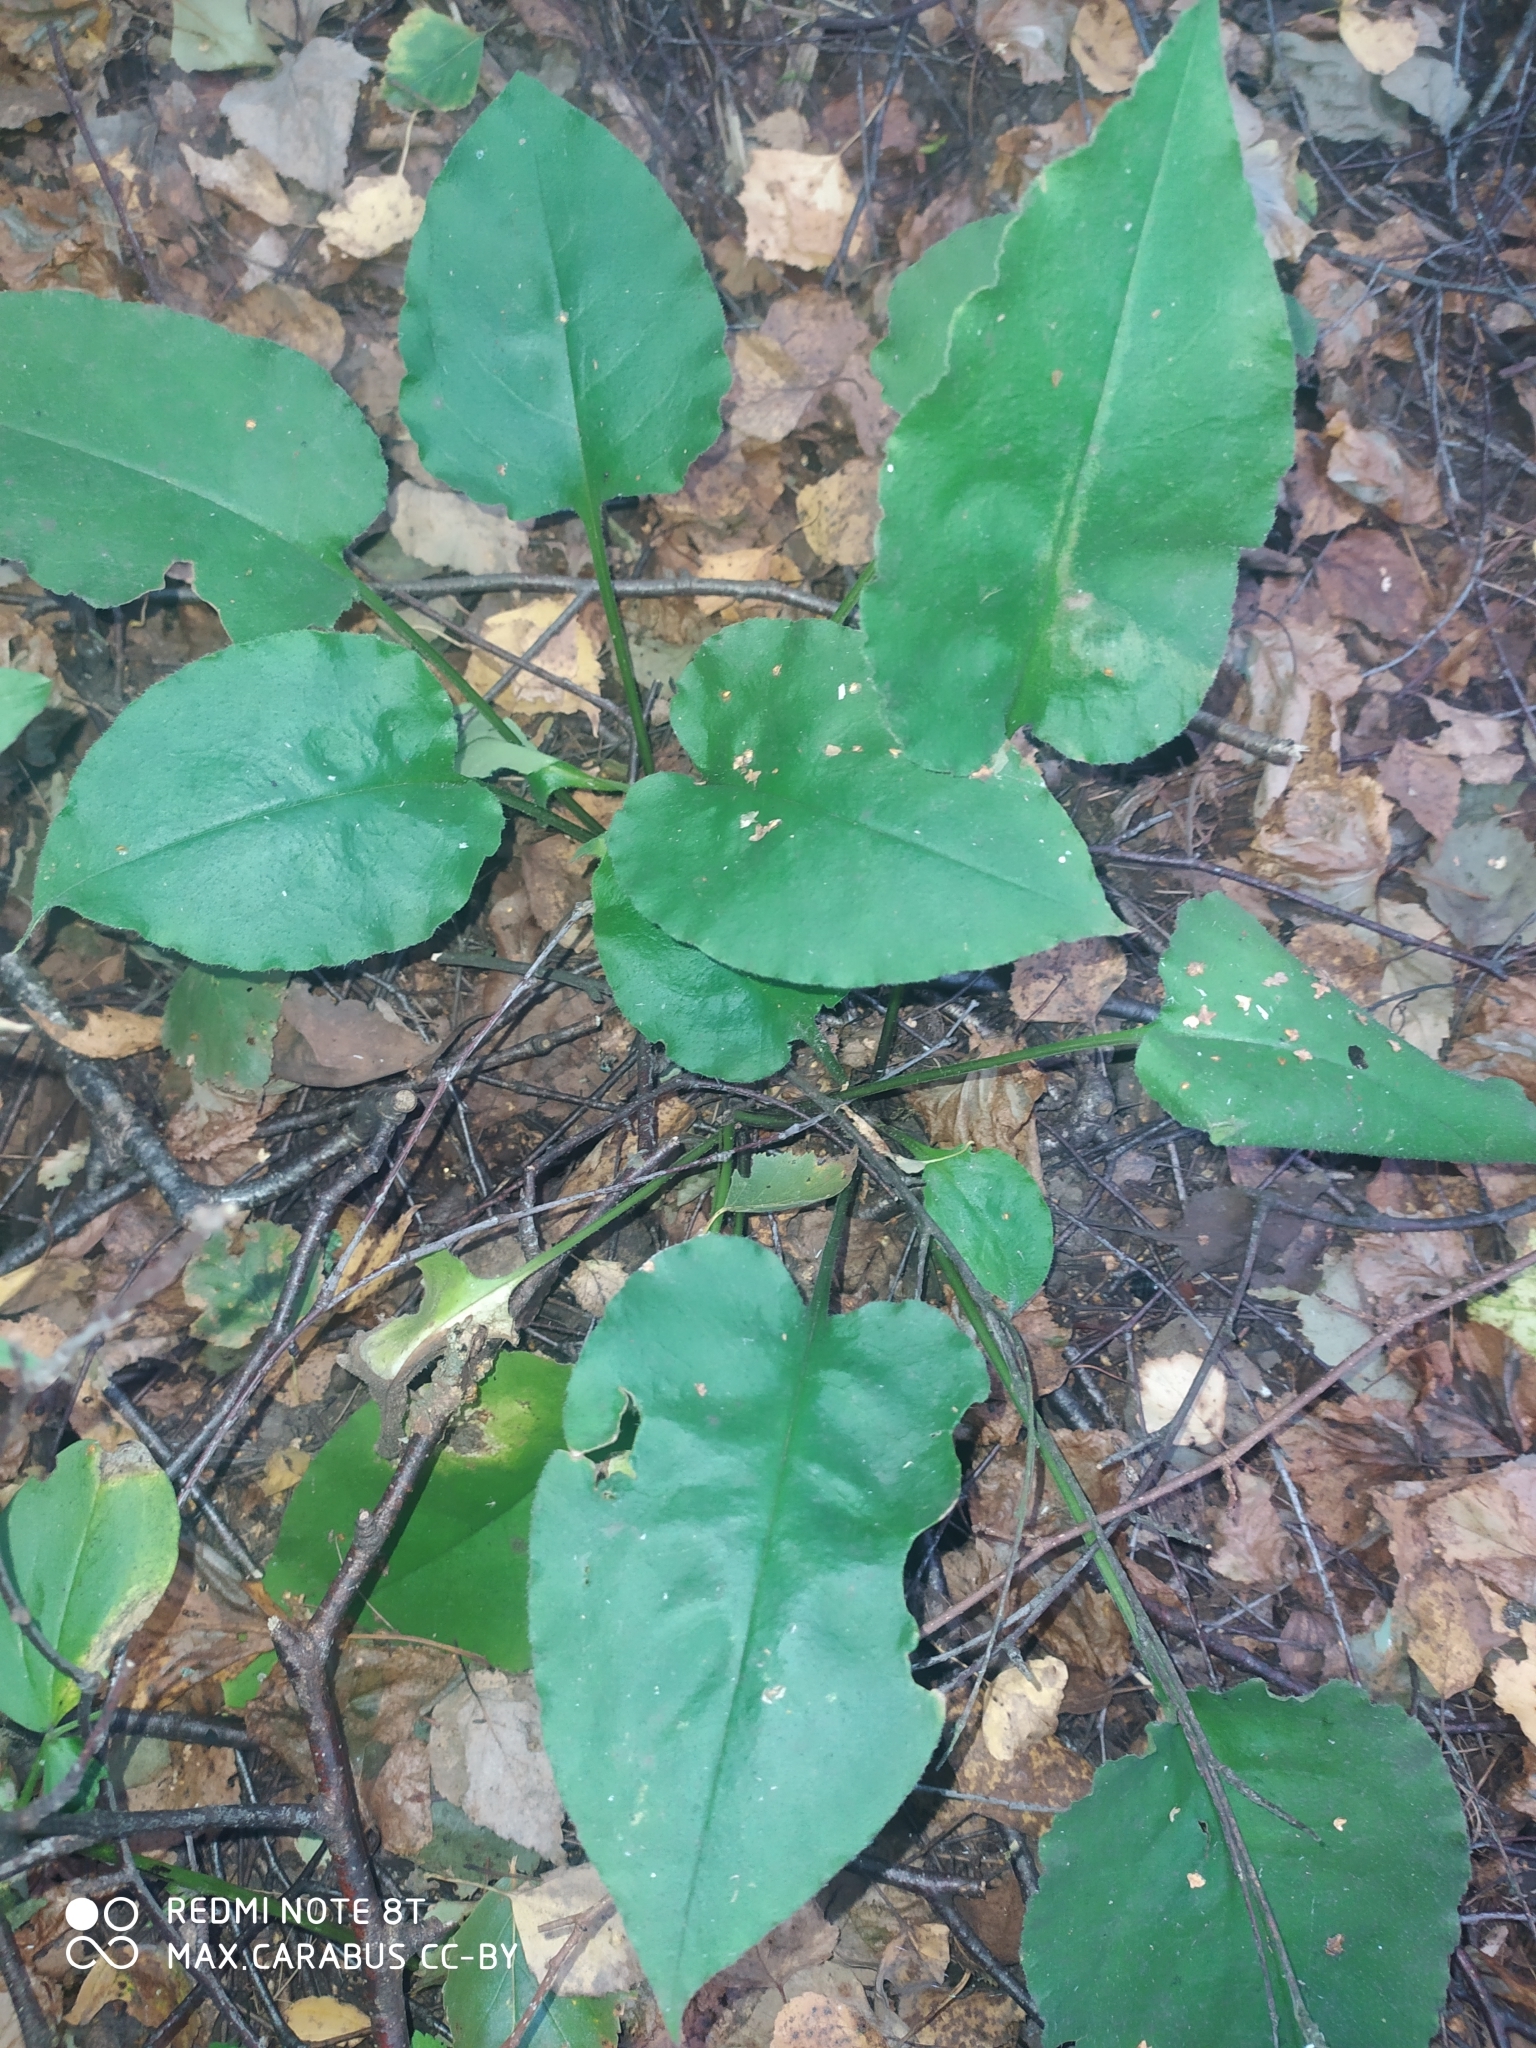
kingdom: Plantae
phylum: Tracheophyta
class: Magnoliopsida
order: Boraginales
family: Boraginaceae
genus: Pulmonaria
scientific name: Pulmonaria obscura
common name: Suffolk lungwort
